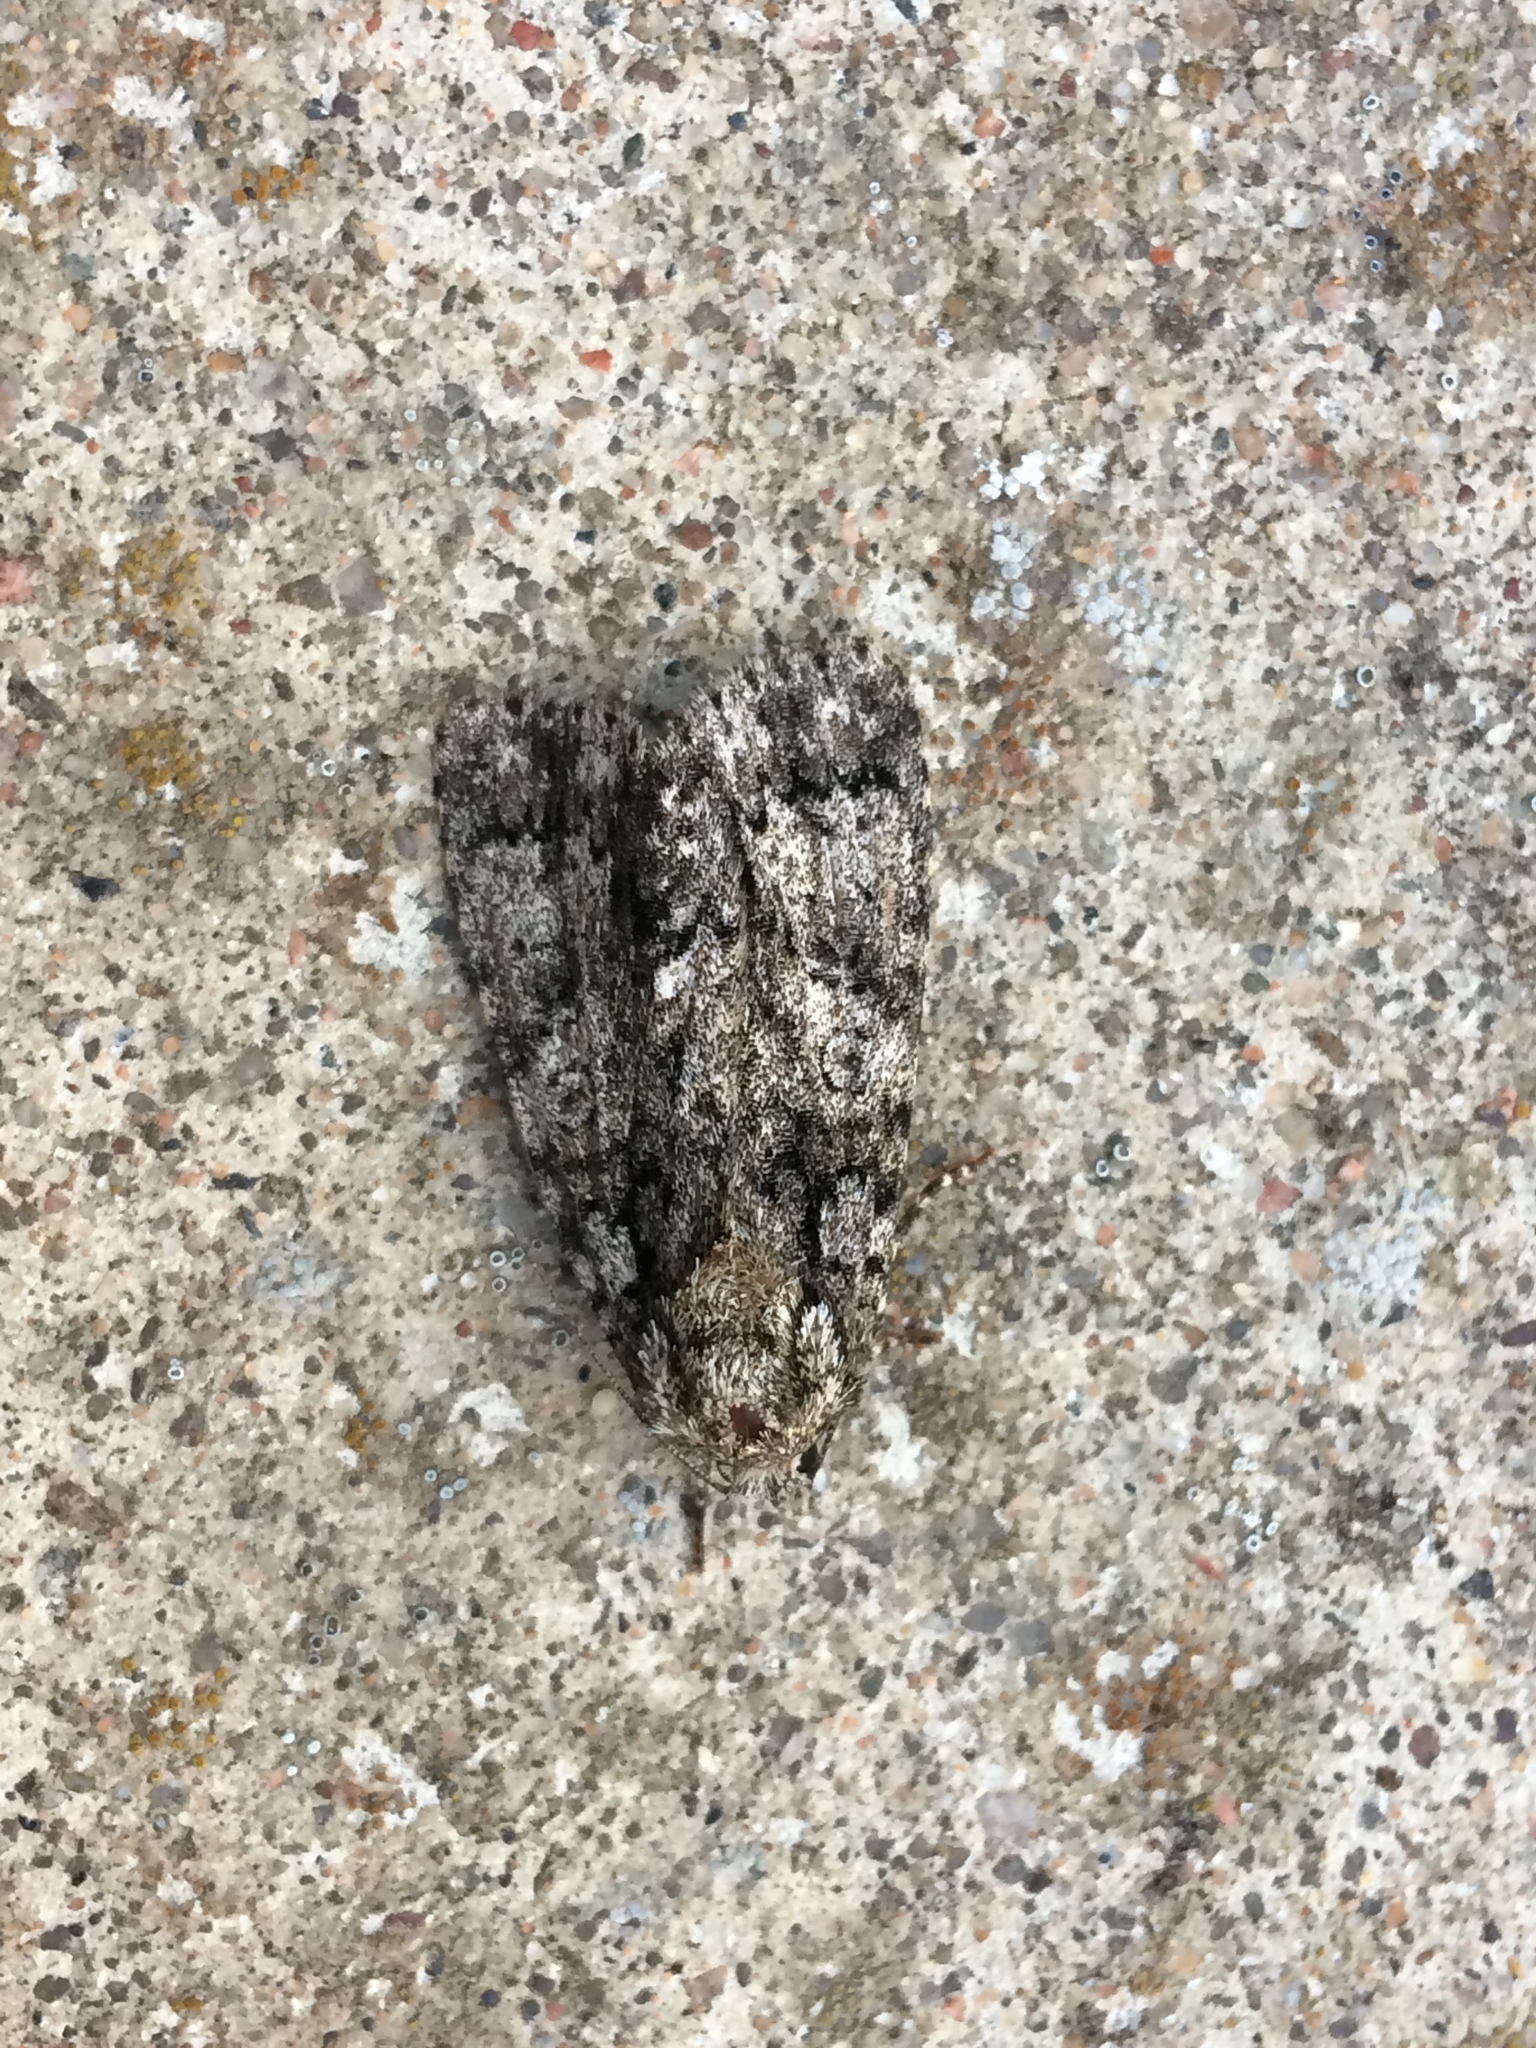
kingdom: Animalia
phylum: Arthropoda
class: Insecta
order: Lepidoptera
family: Noctuidae
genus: Acronicta
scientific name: Acronicta rumicis
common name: Knot grass
